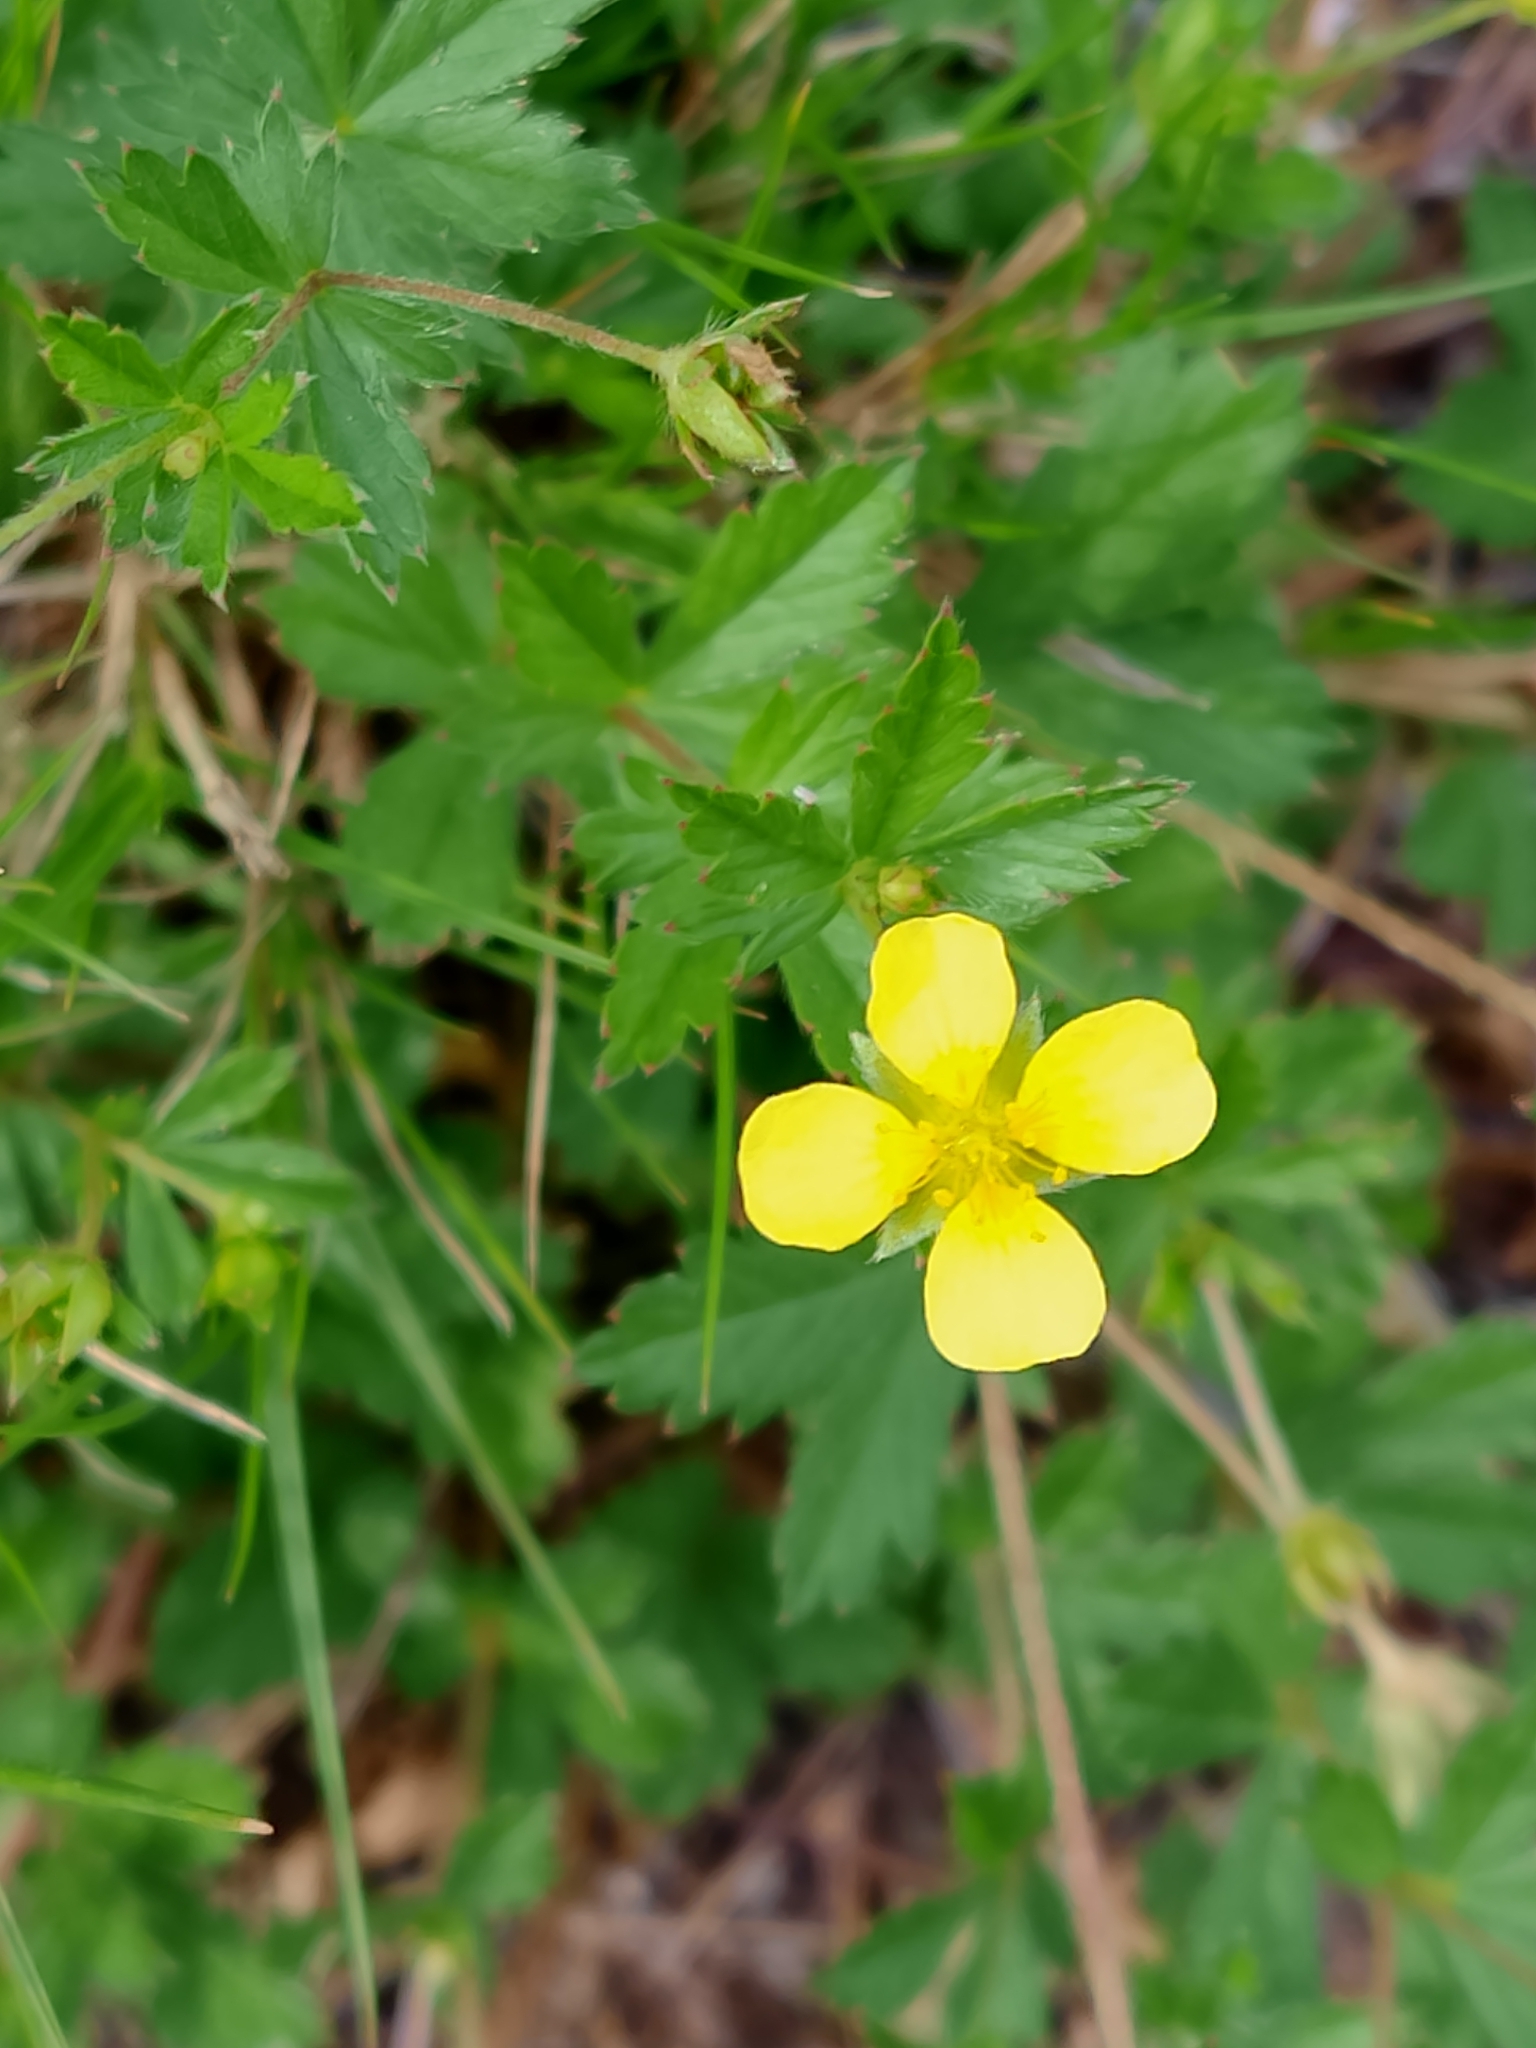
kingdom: Plantae
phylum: Tracheophyta
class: Magnoliopsida
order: Rosales
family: Rosaceae
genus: Potentilla
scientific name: Potentilla erecta
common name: Tormentil
